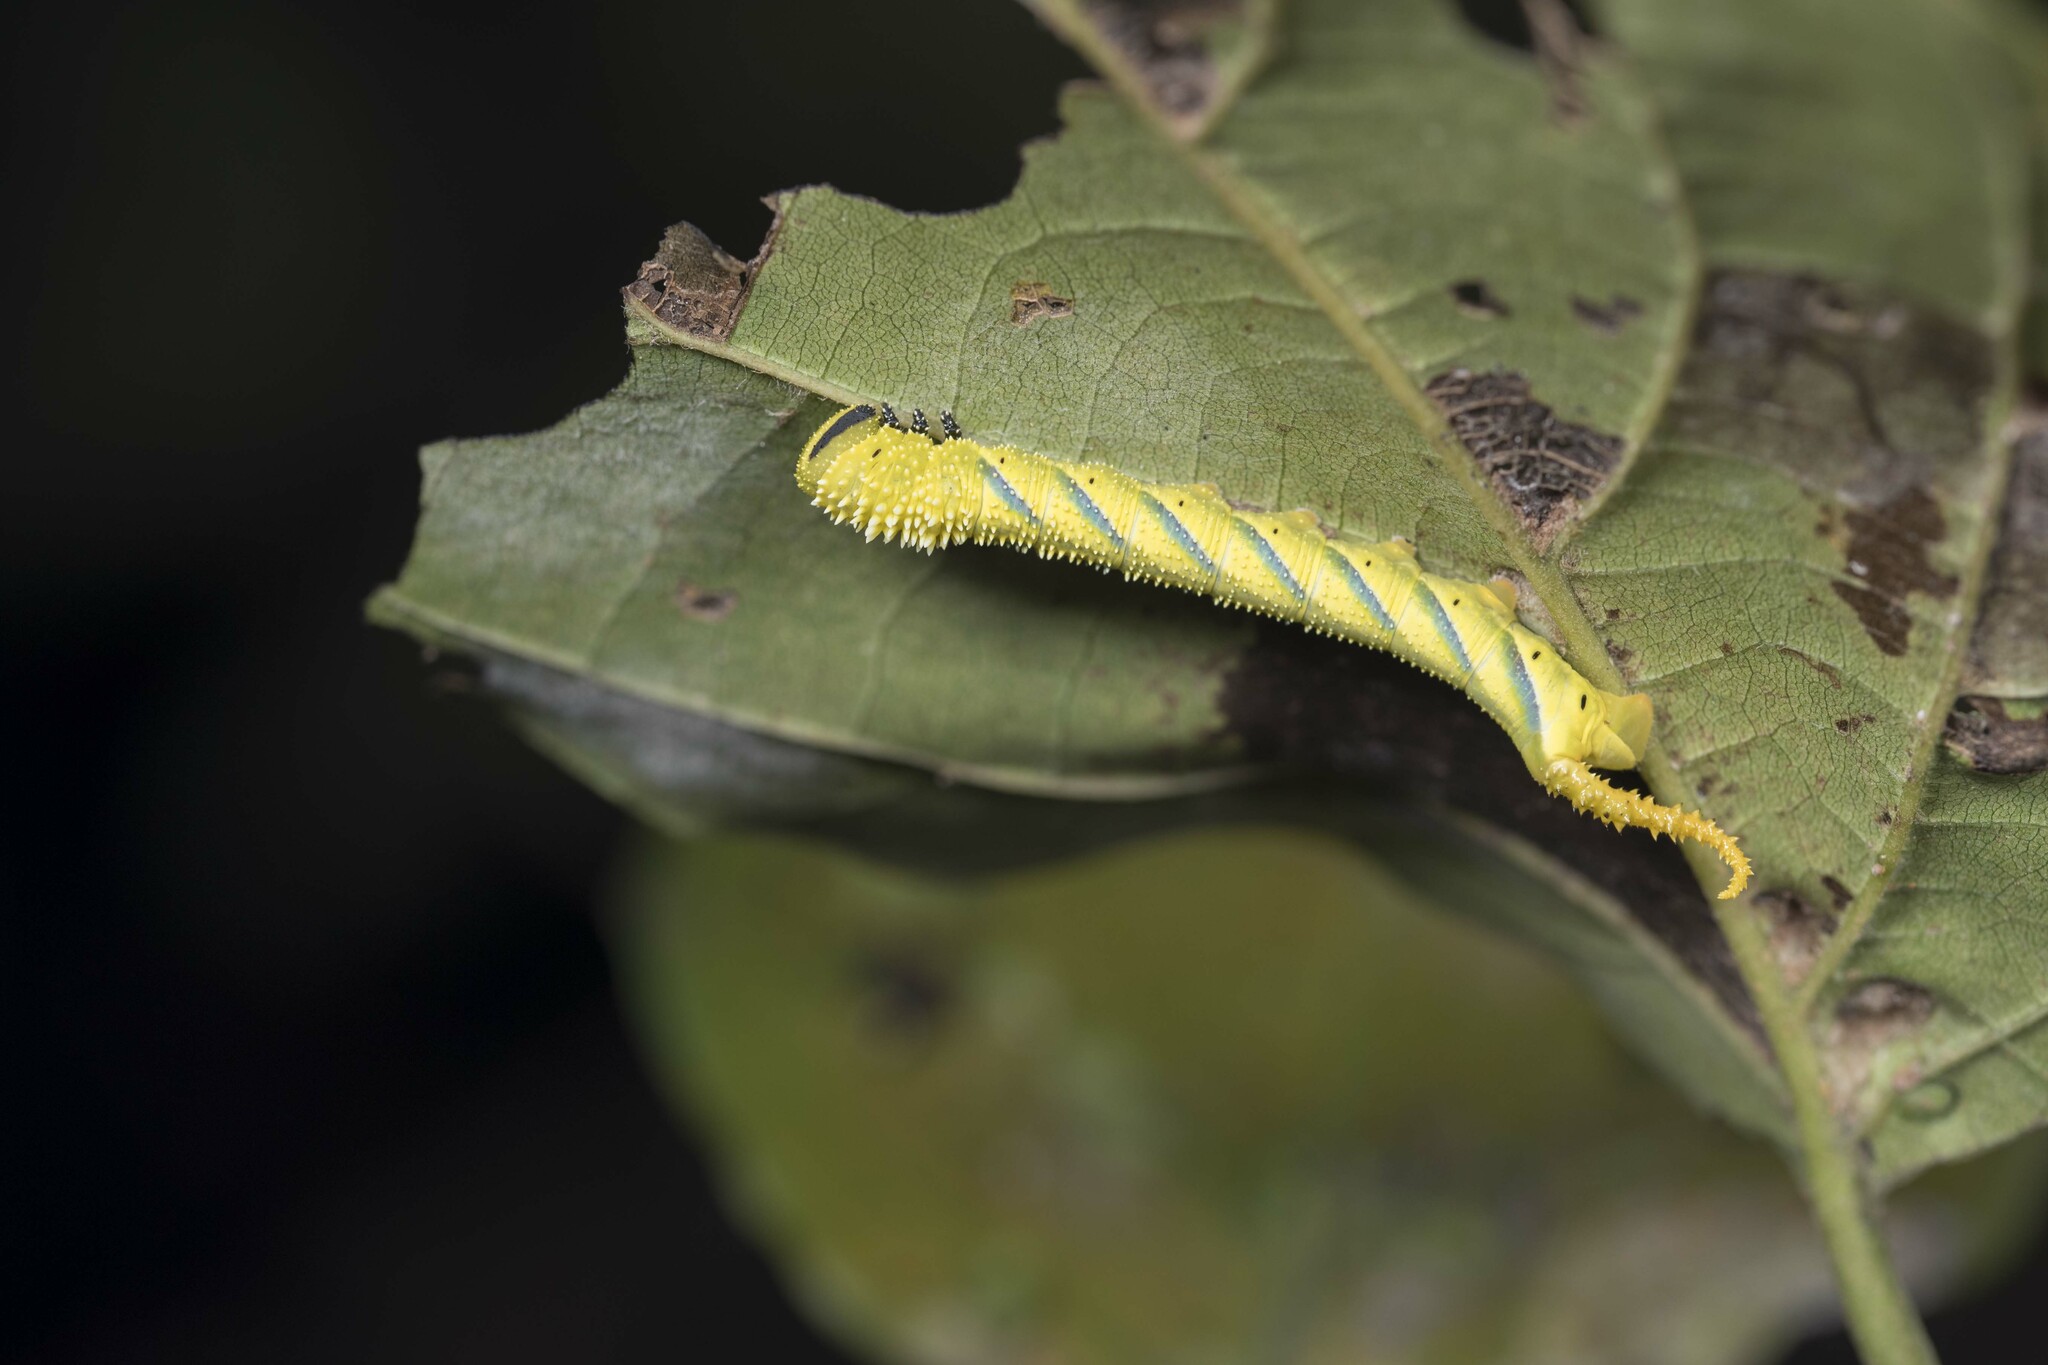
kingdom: Animalia
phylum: Arthropoda
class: Insecta
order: Lepidoptera
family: Sphingidae
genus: Acherontia
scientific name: Acherontia lachesis
